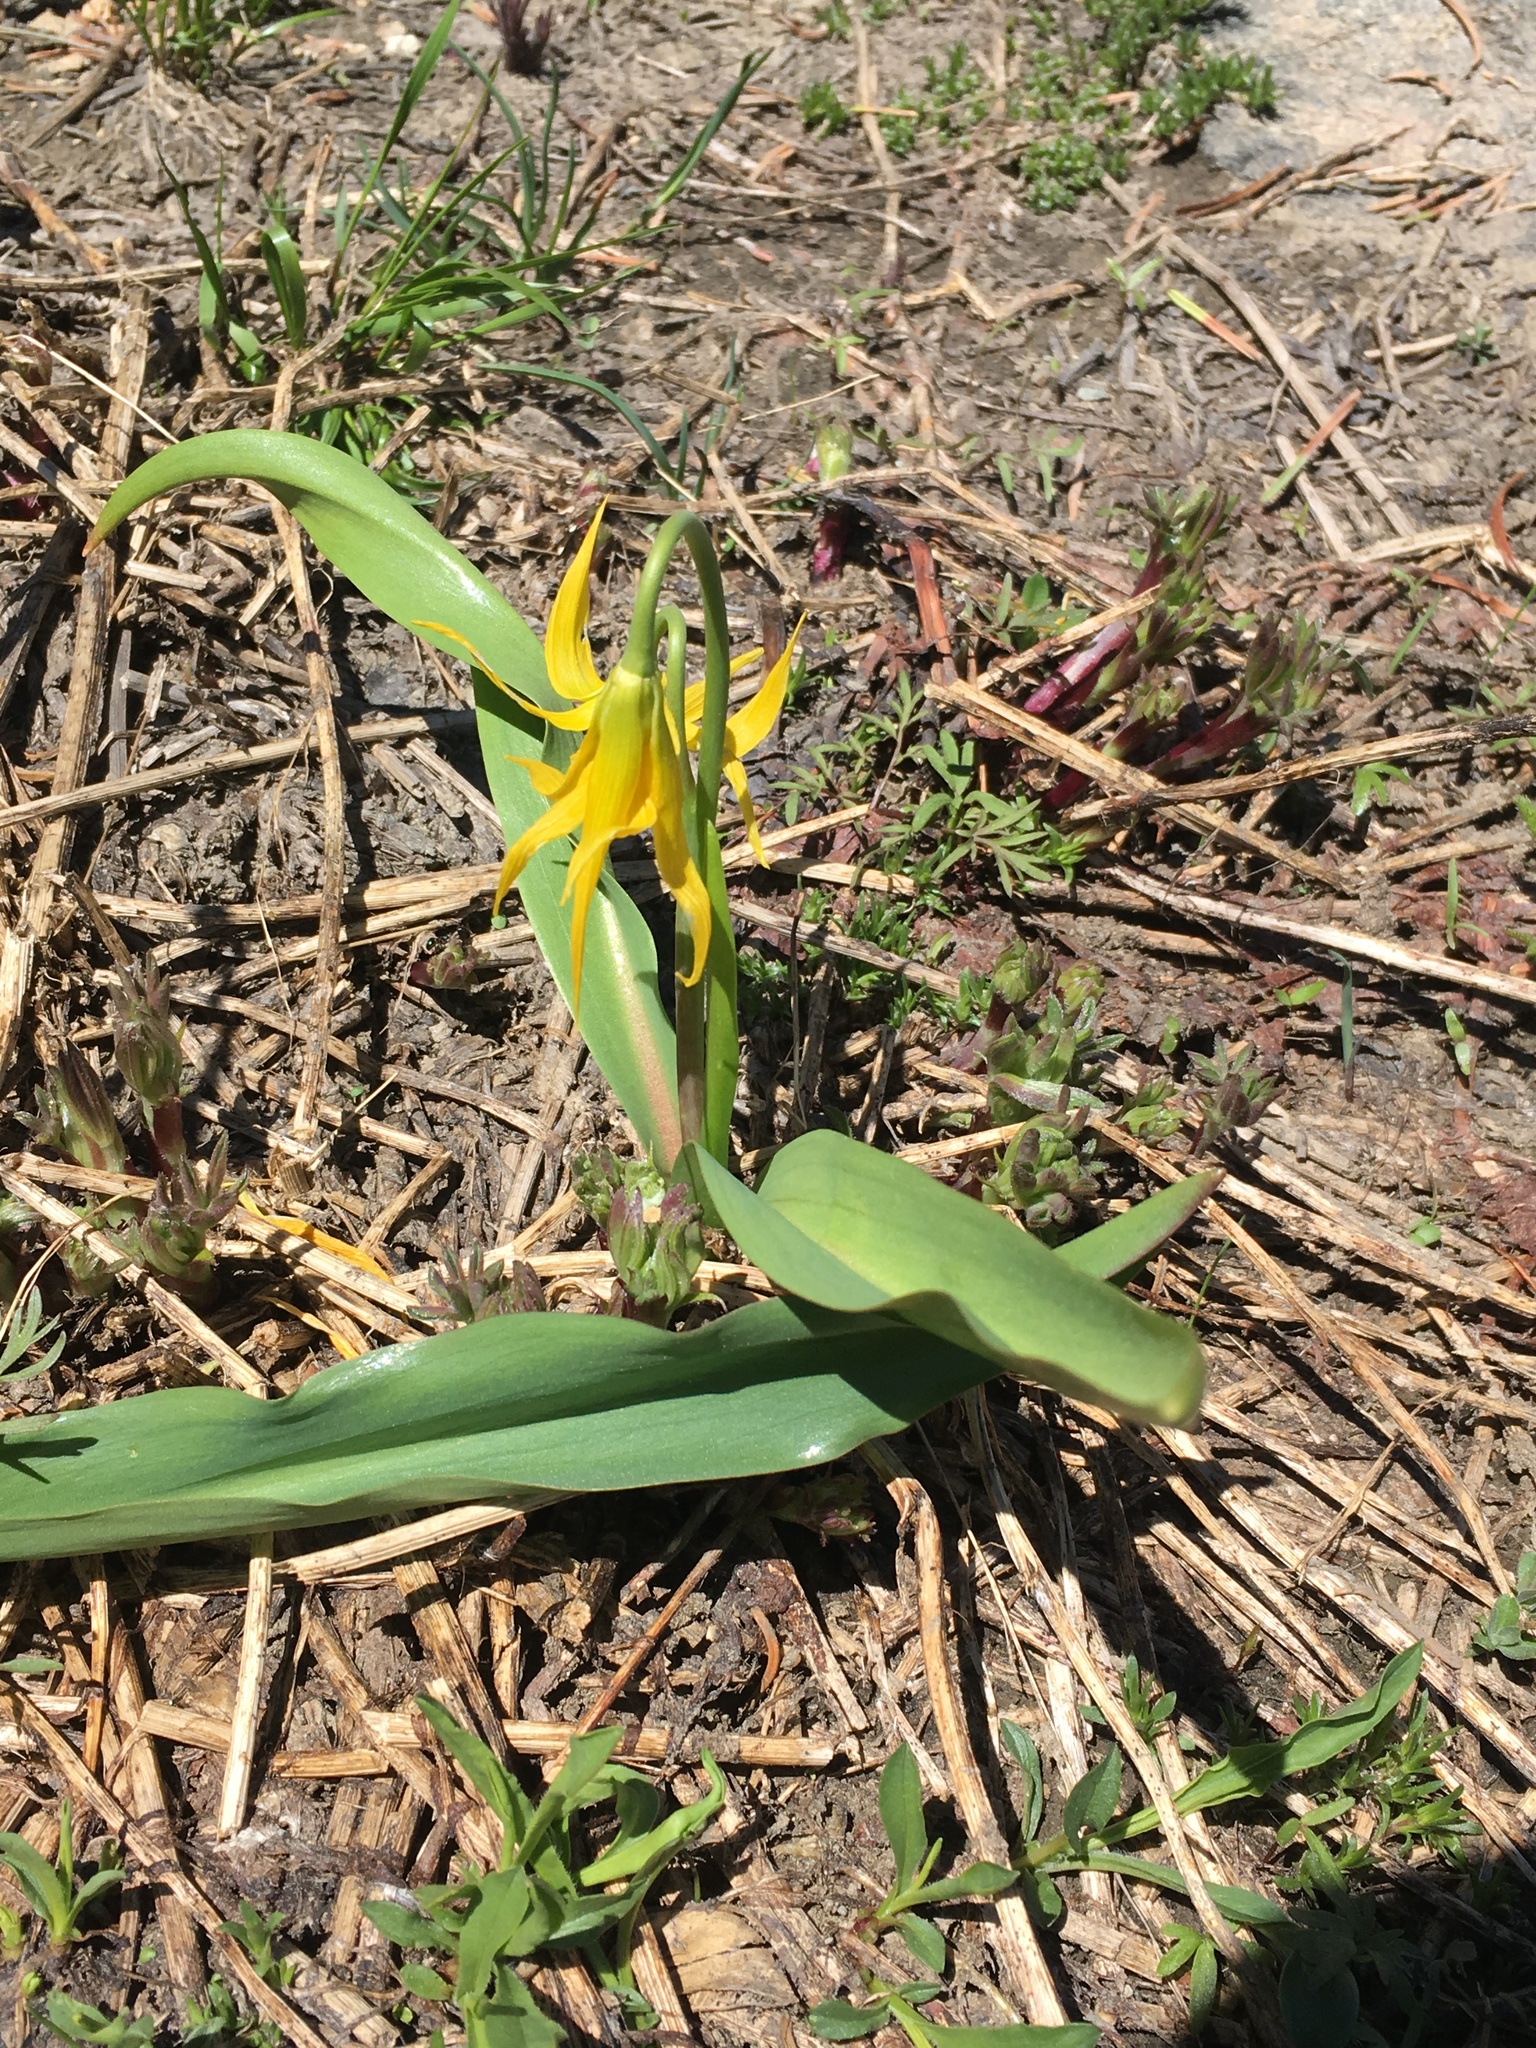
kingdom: Plantae
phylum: Tracheophyta
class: Liliopsida
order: Liliales
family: Liliaceae
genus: Erythronium
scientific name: Erythronium grandiflorum
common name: Avalanche-lily
